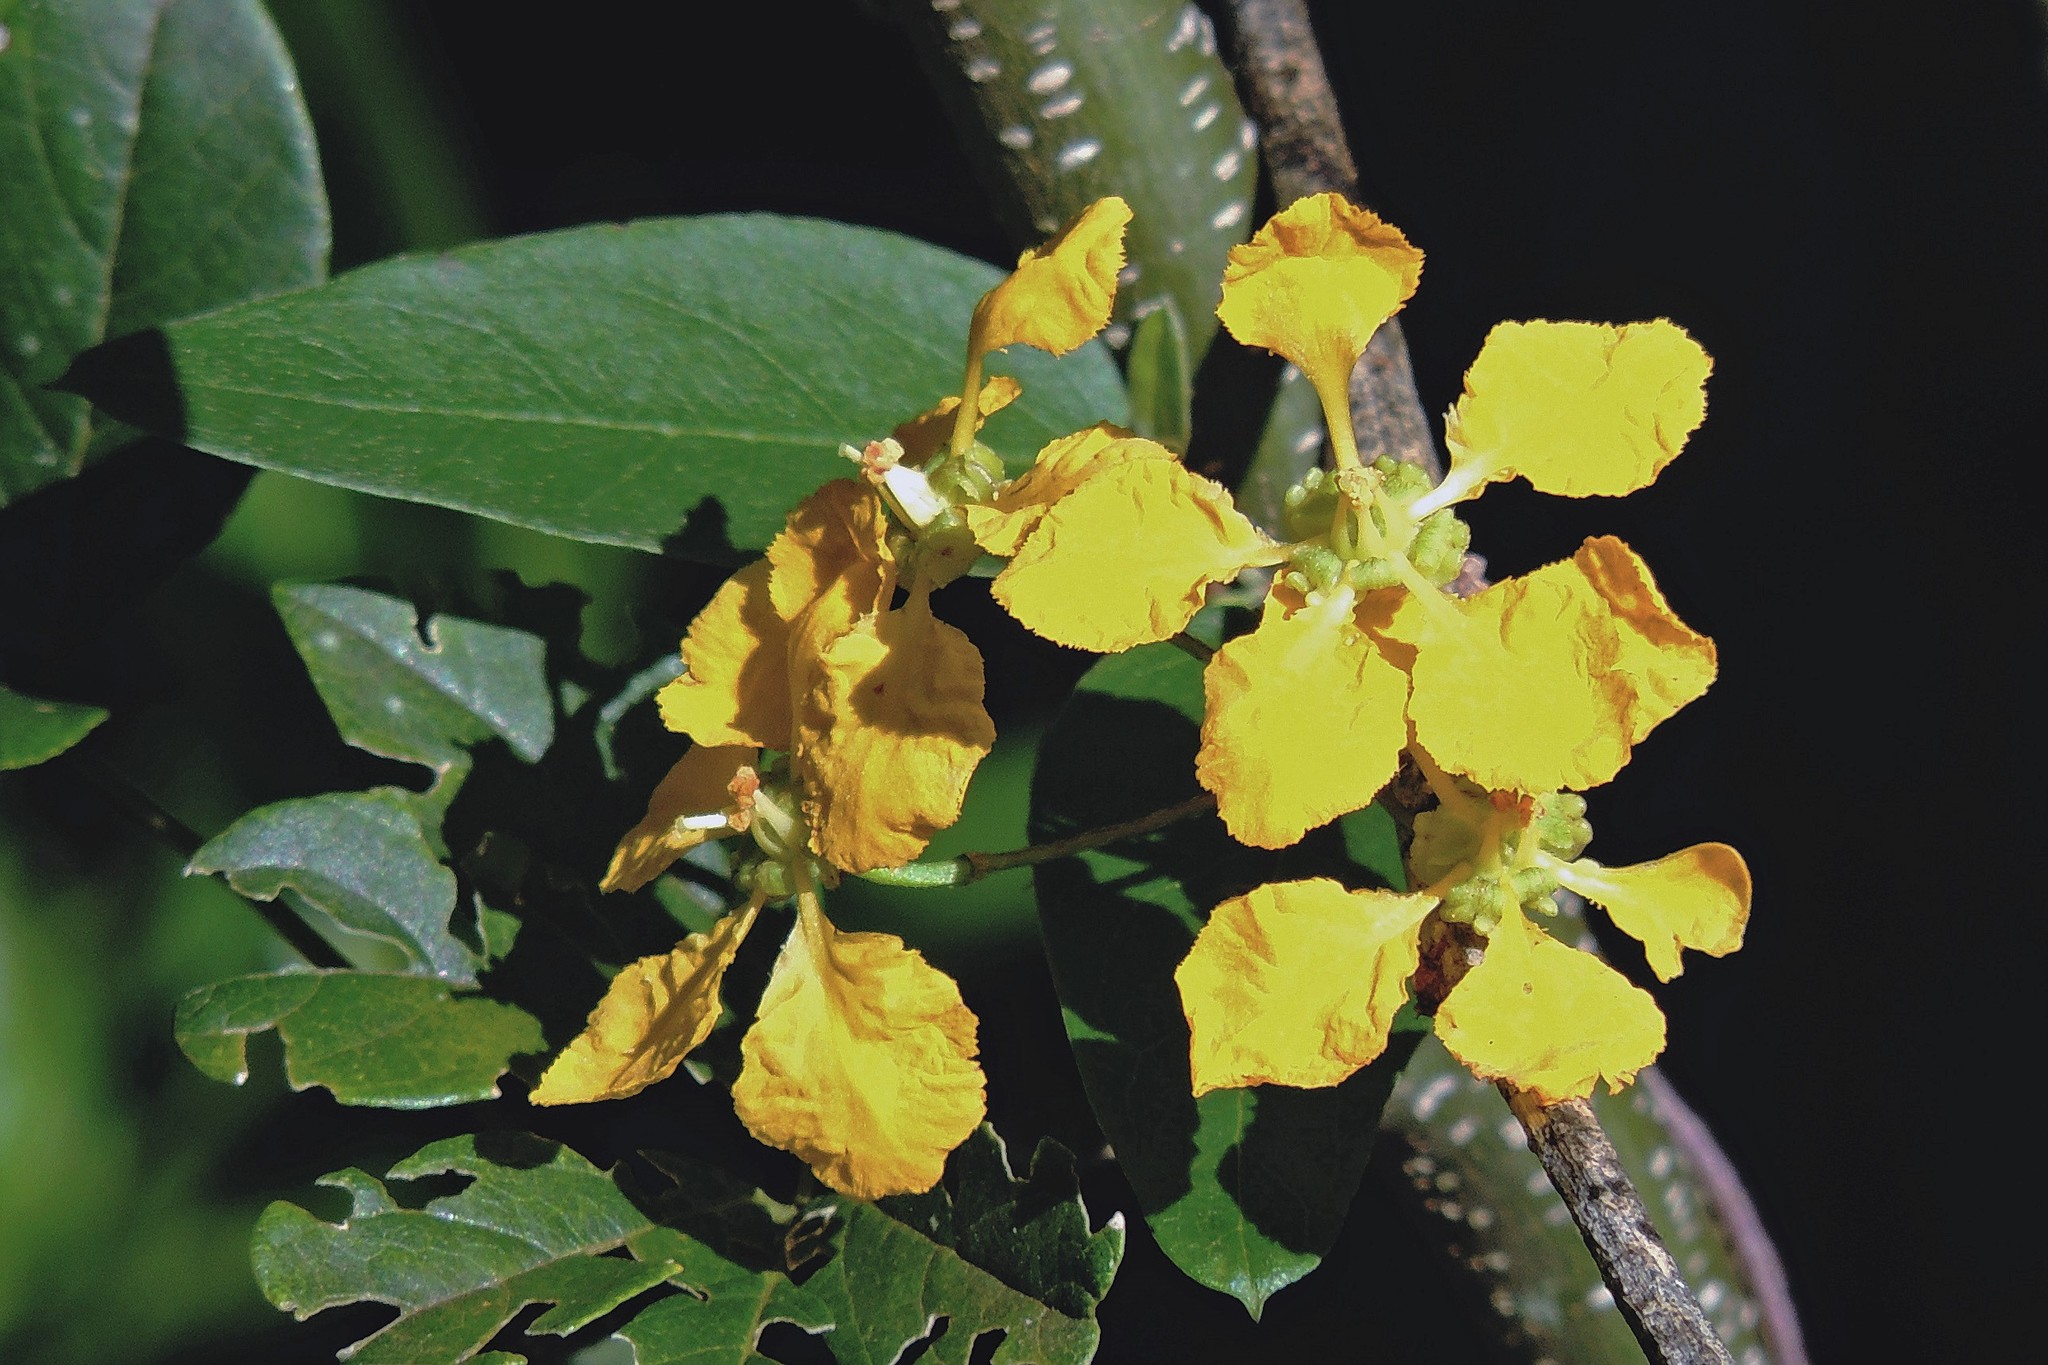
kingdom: Plantae
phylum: Tracheophyta
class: Magnoliopsida
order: Malpighiales
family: Malpighiaceae
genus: Janusia
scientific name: Janusia guaranitica
